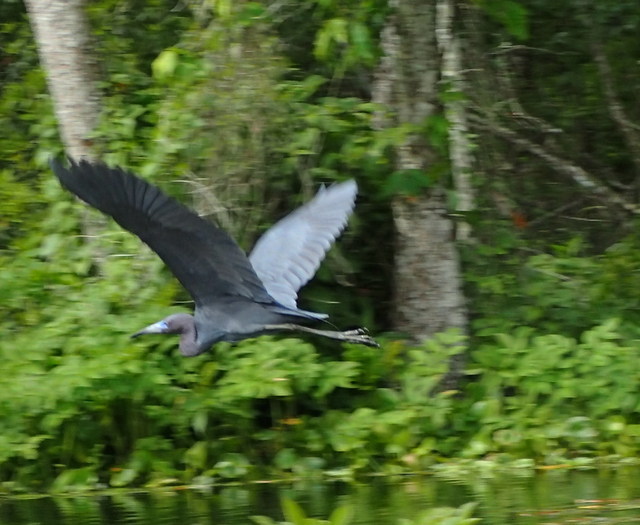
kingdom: Animalia
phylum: Chordata
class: Aves
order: Pelecaniformes
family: Ardeidae
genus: Egretta
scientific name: Egretta caerulea
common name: Little blue heron
